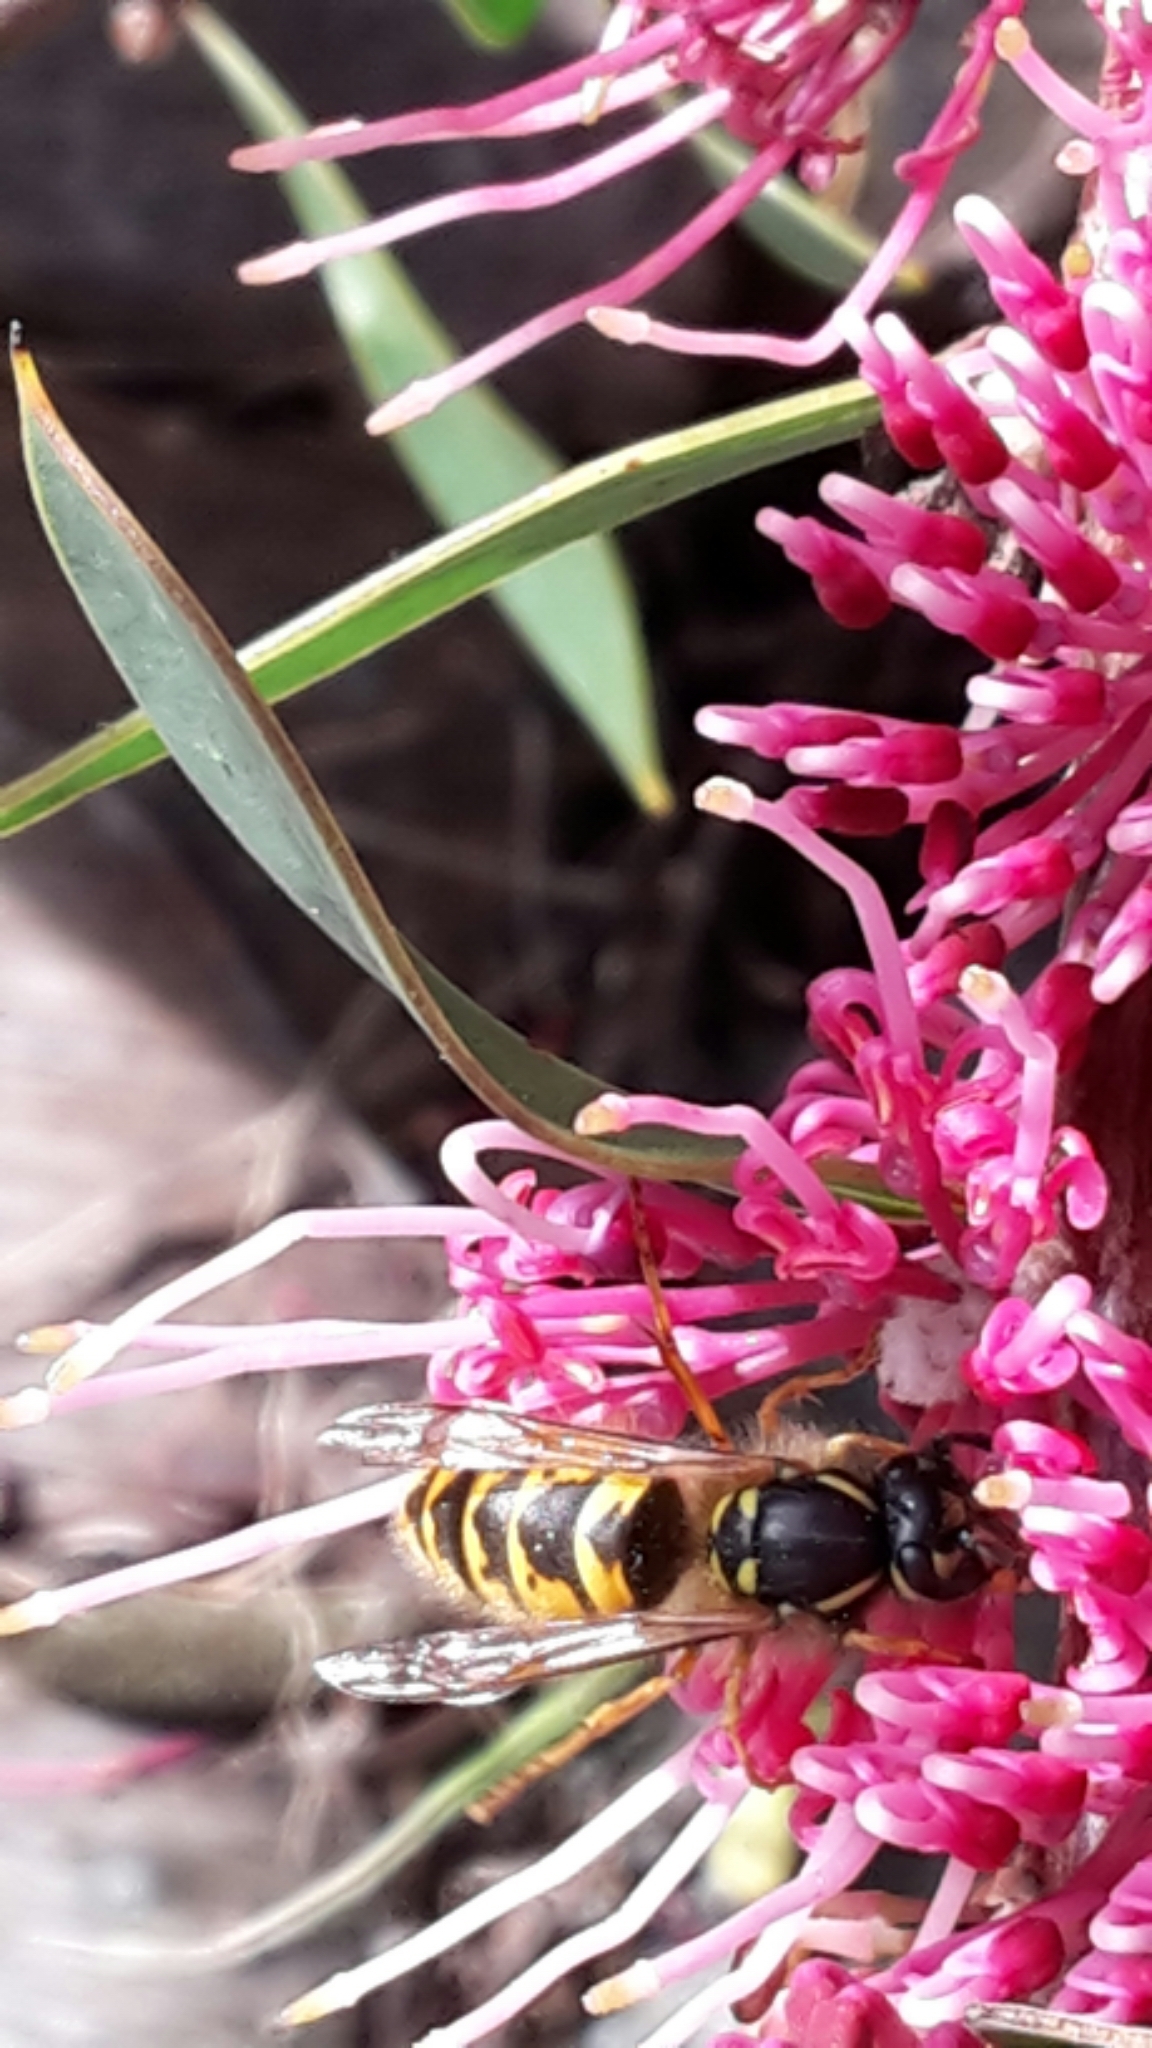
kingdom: Animalia
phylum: Arthropoda
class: Insecta
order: Hymenoptera
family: Vespidae
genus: Vespula
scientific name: Vespula vulgaris
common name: Common wasp
